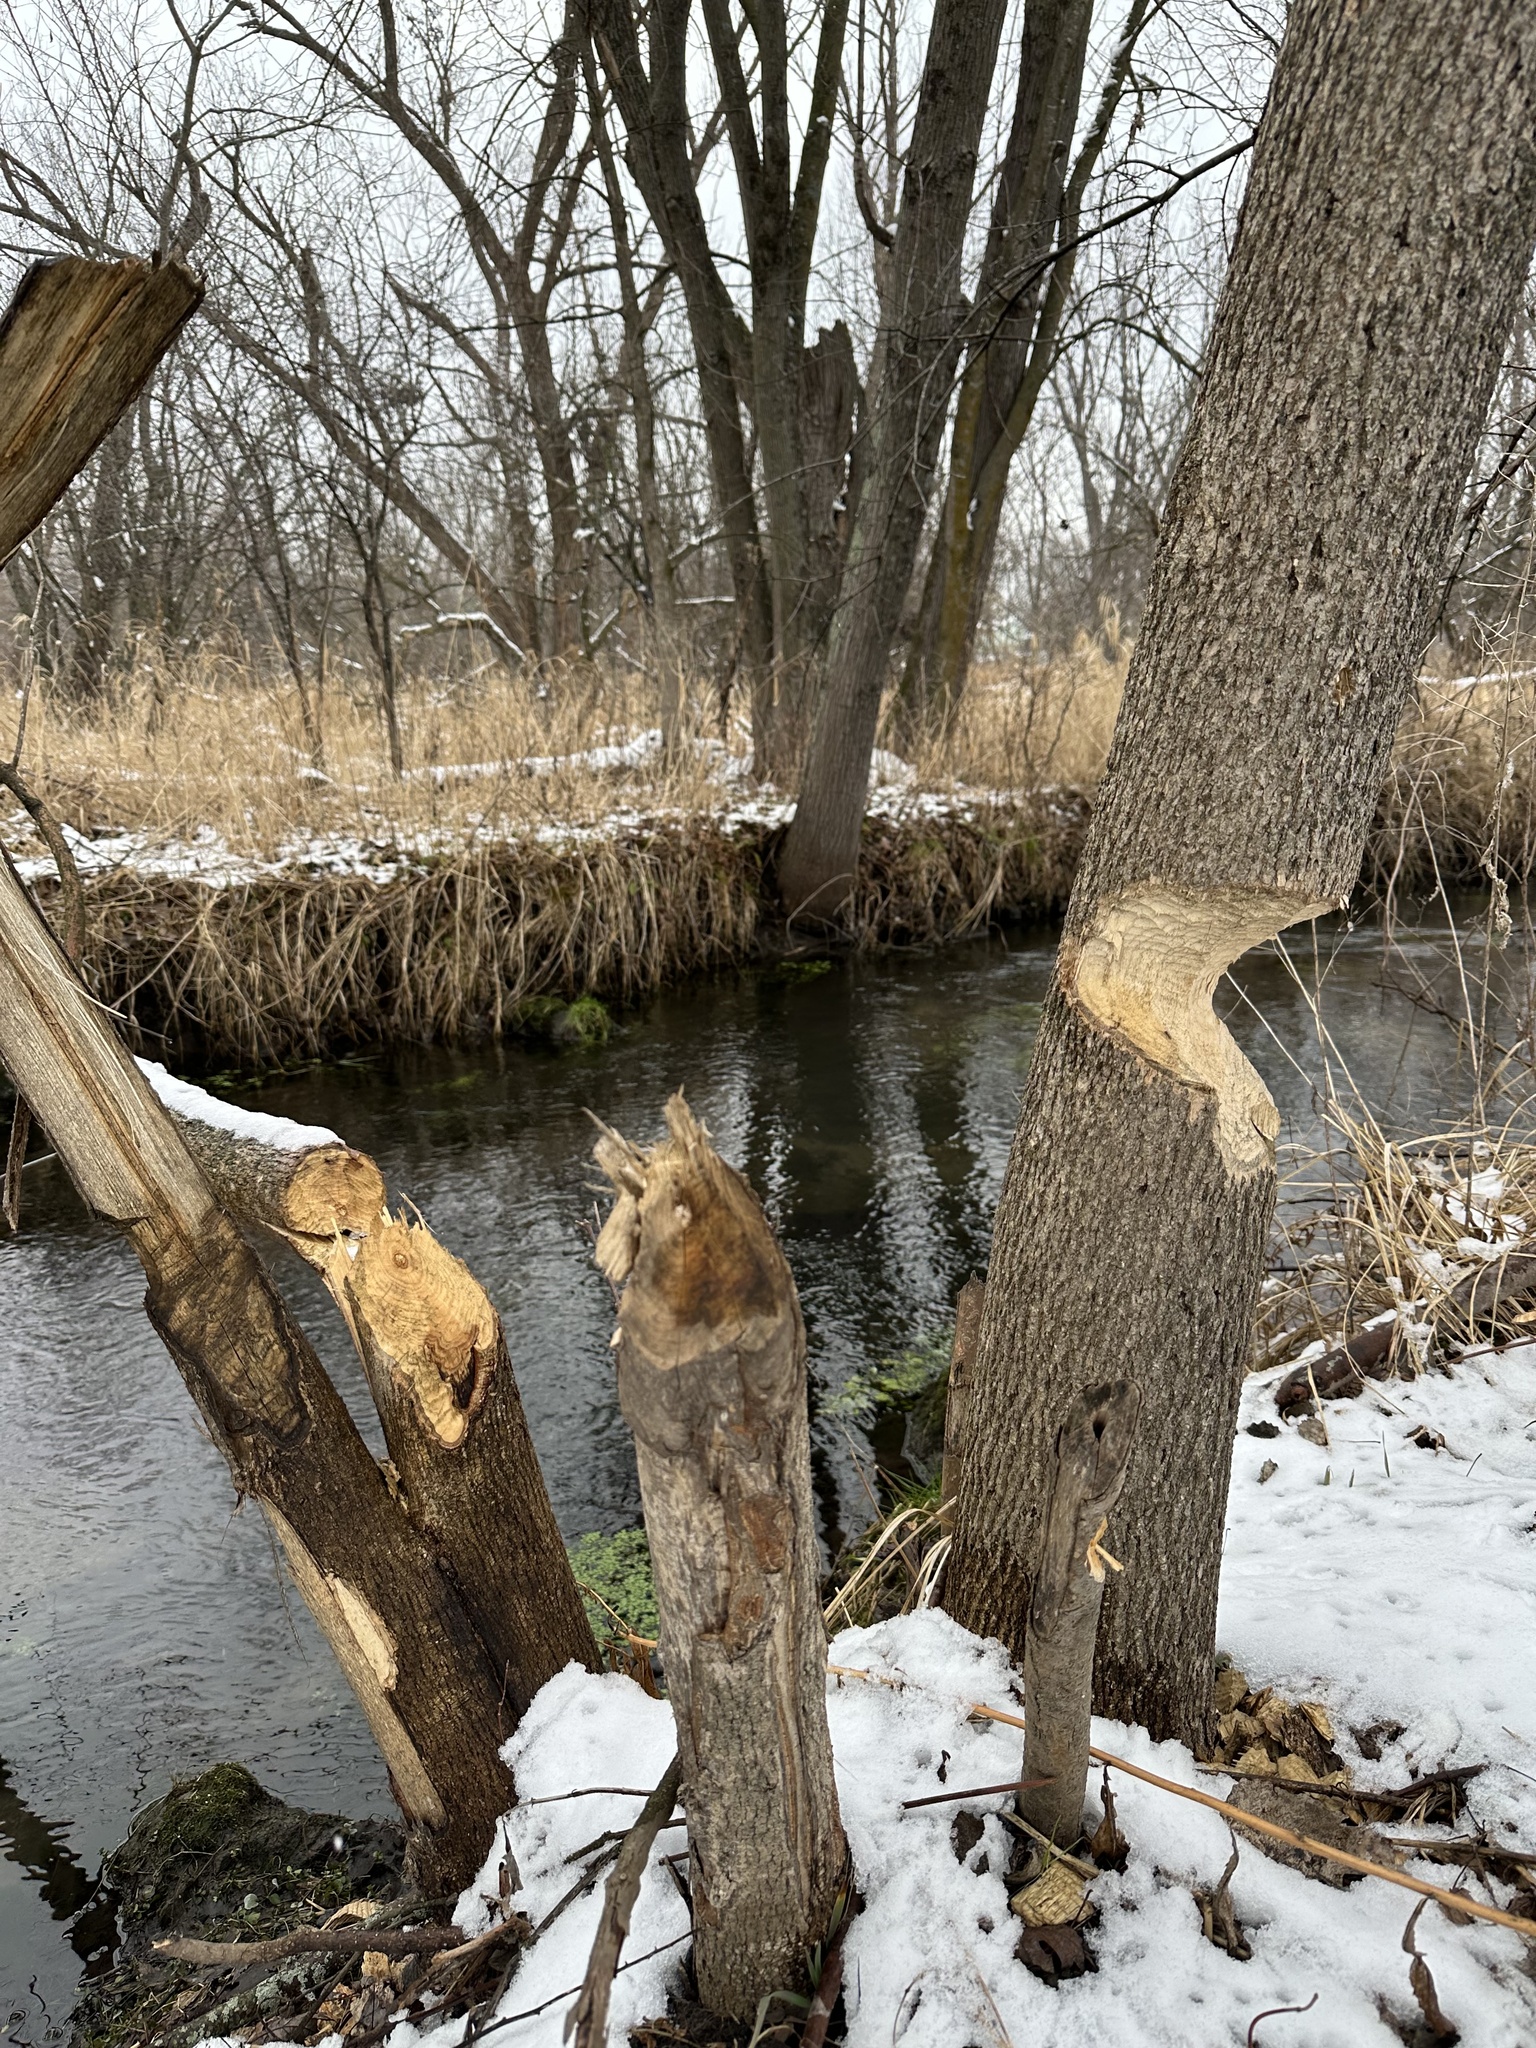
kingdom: Animalia
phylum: Chordata
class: Mammalia
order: Rodentia
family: Castoridae
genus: Castor
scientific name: Castor canadensis
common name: American beaver
